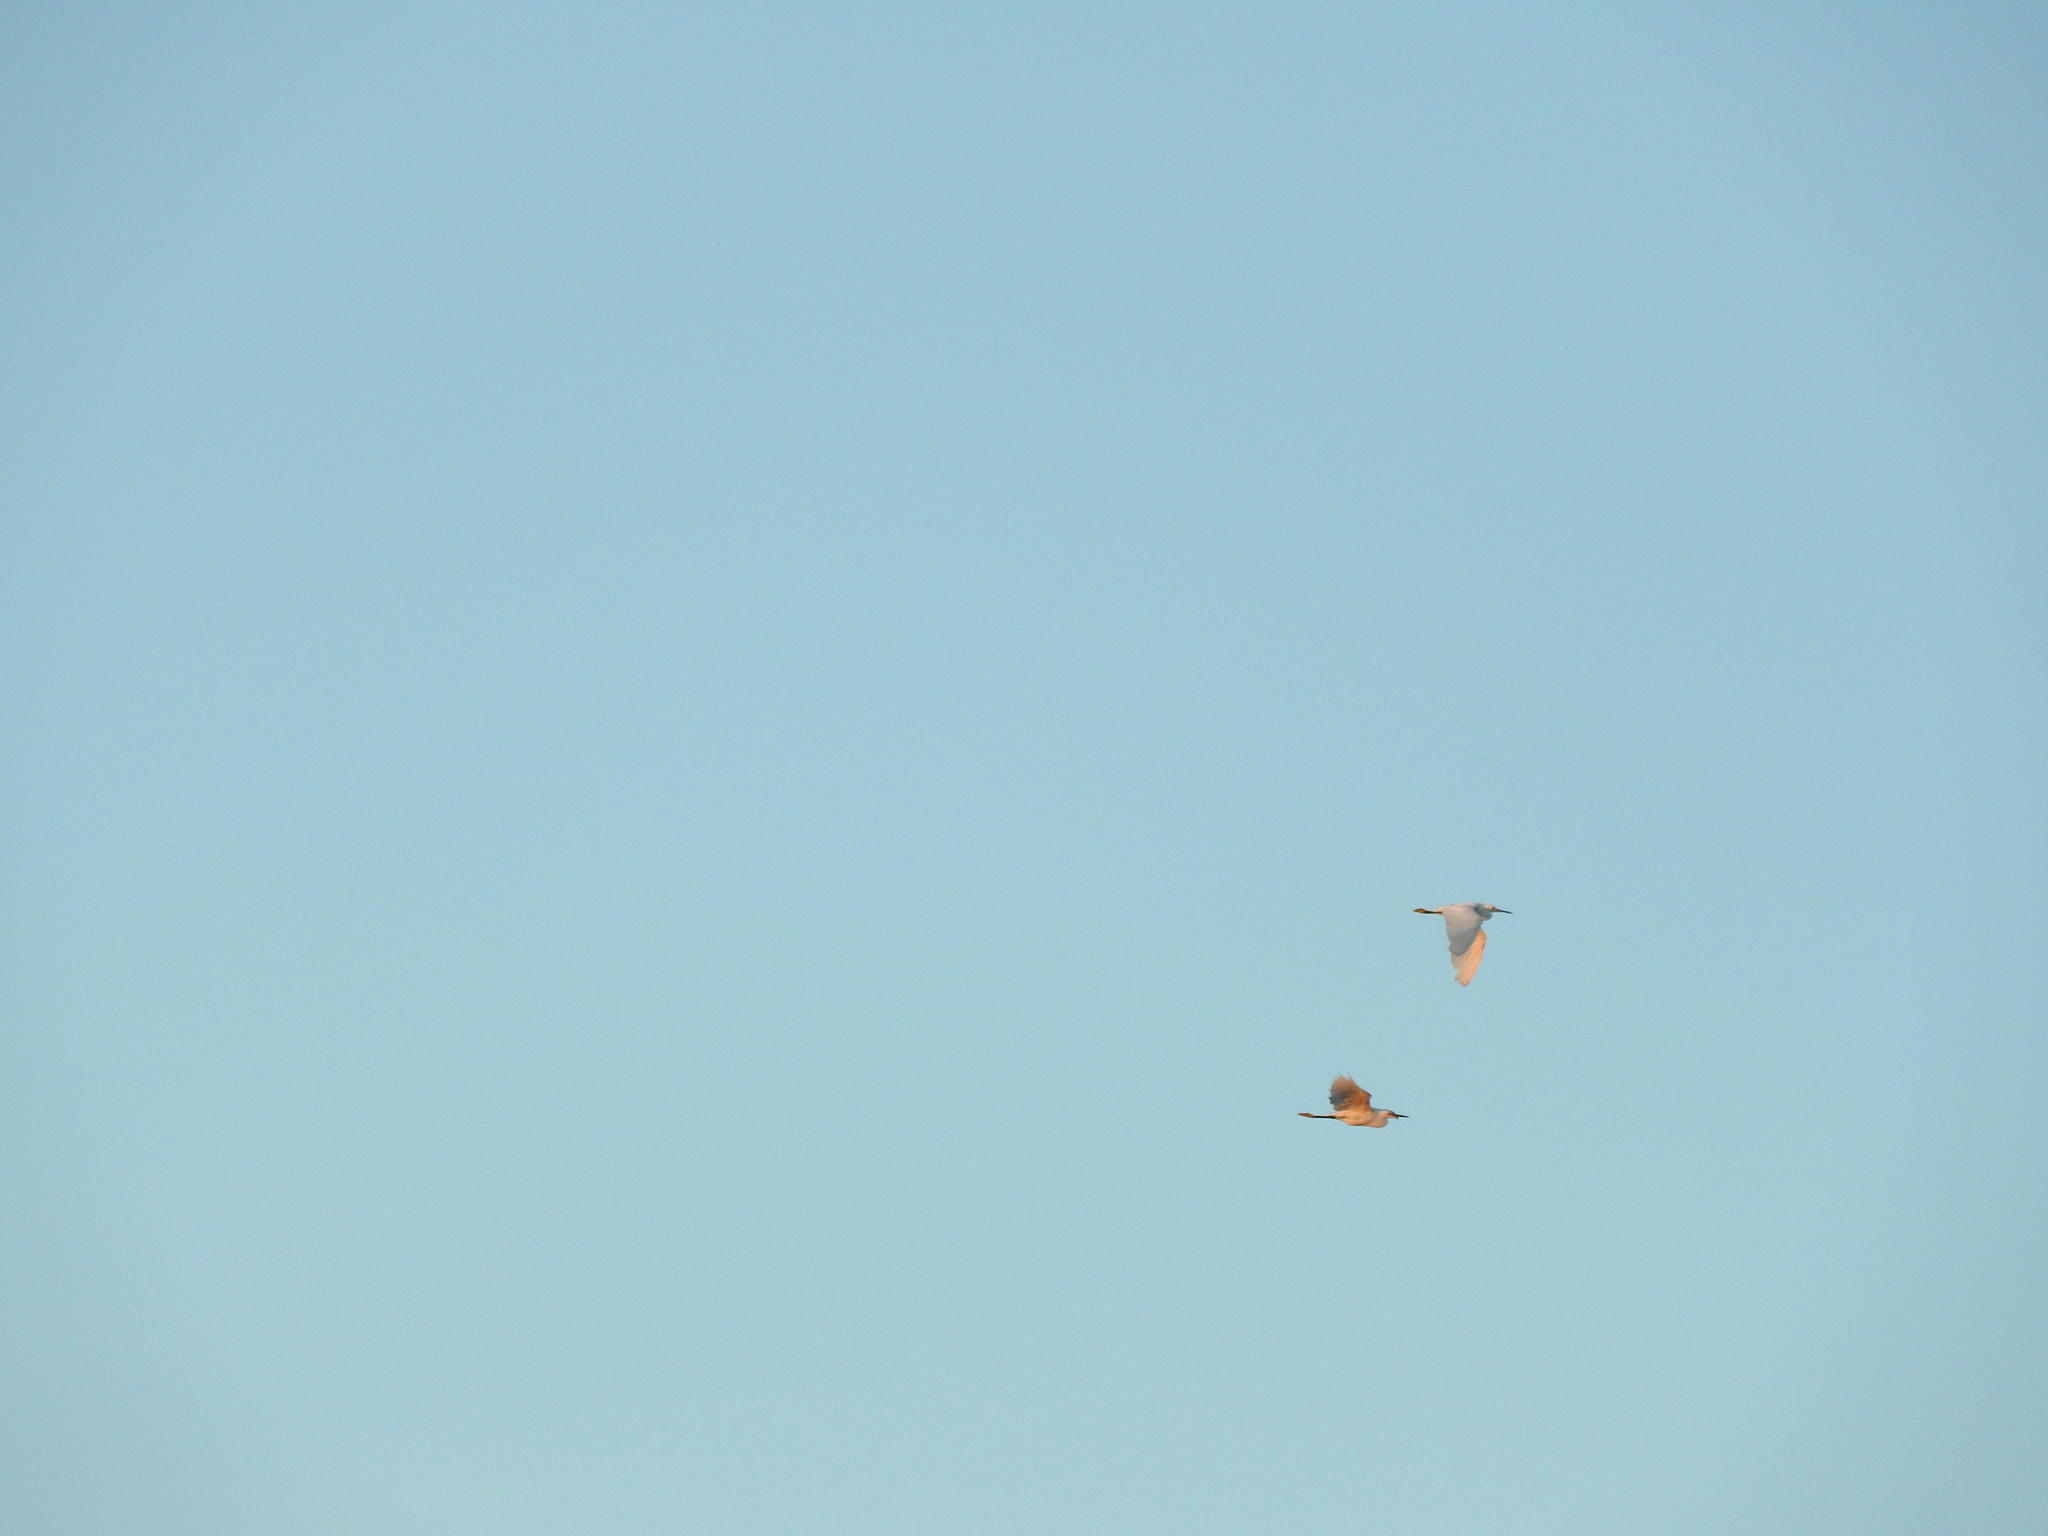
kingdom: Animalia
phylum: Chordata
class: Aves
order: Pelecaniformes
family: Ardeidae
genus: Egretta
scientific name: Egretta thula
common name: Snowy egret
